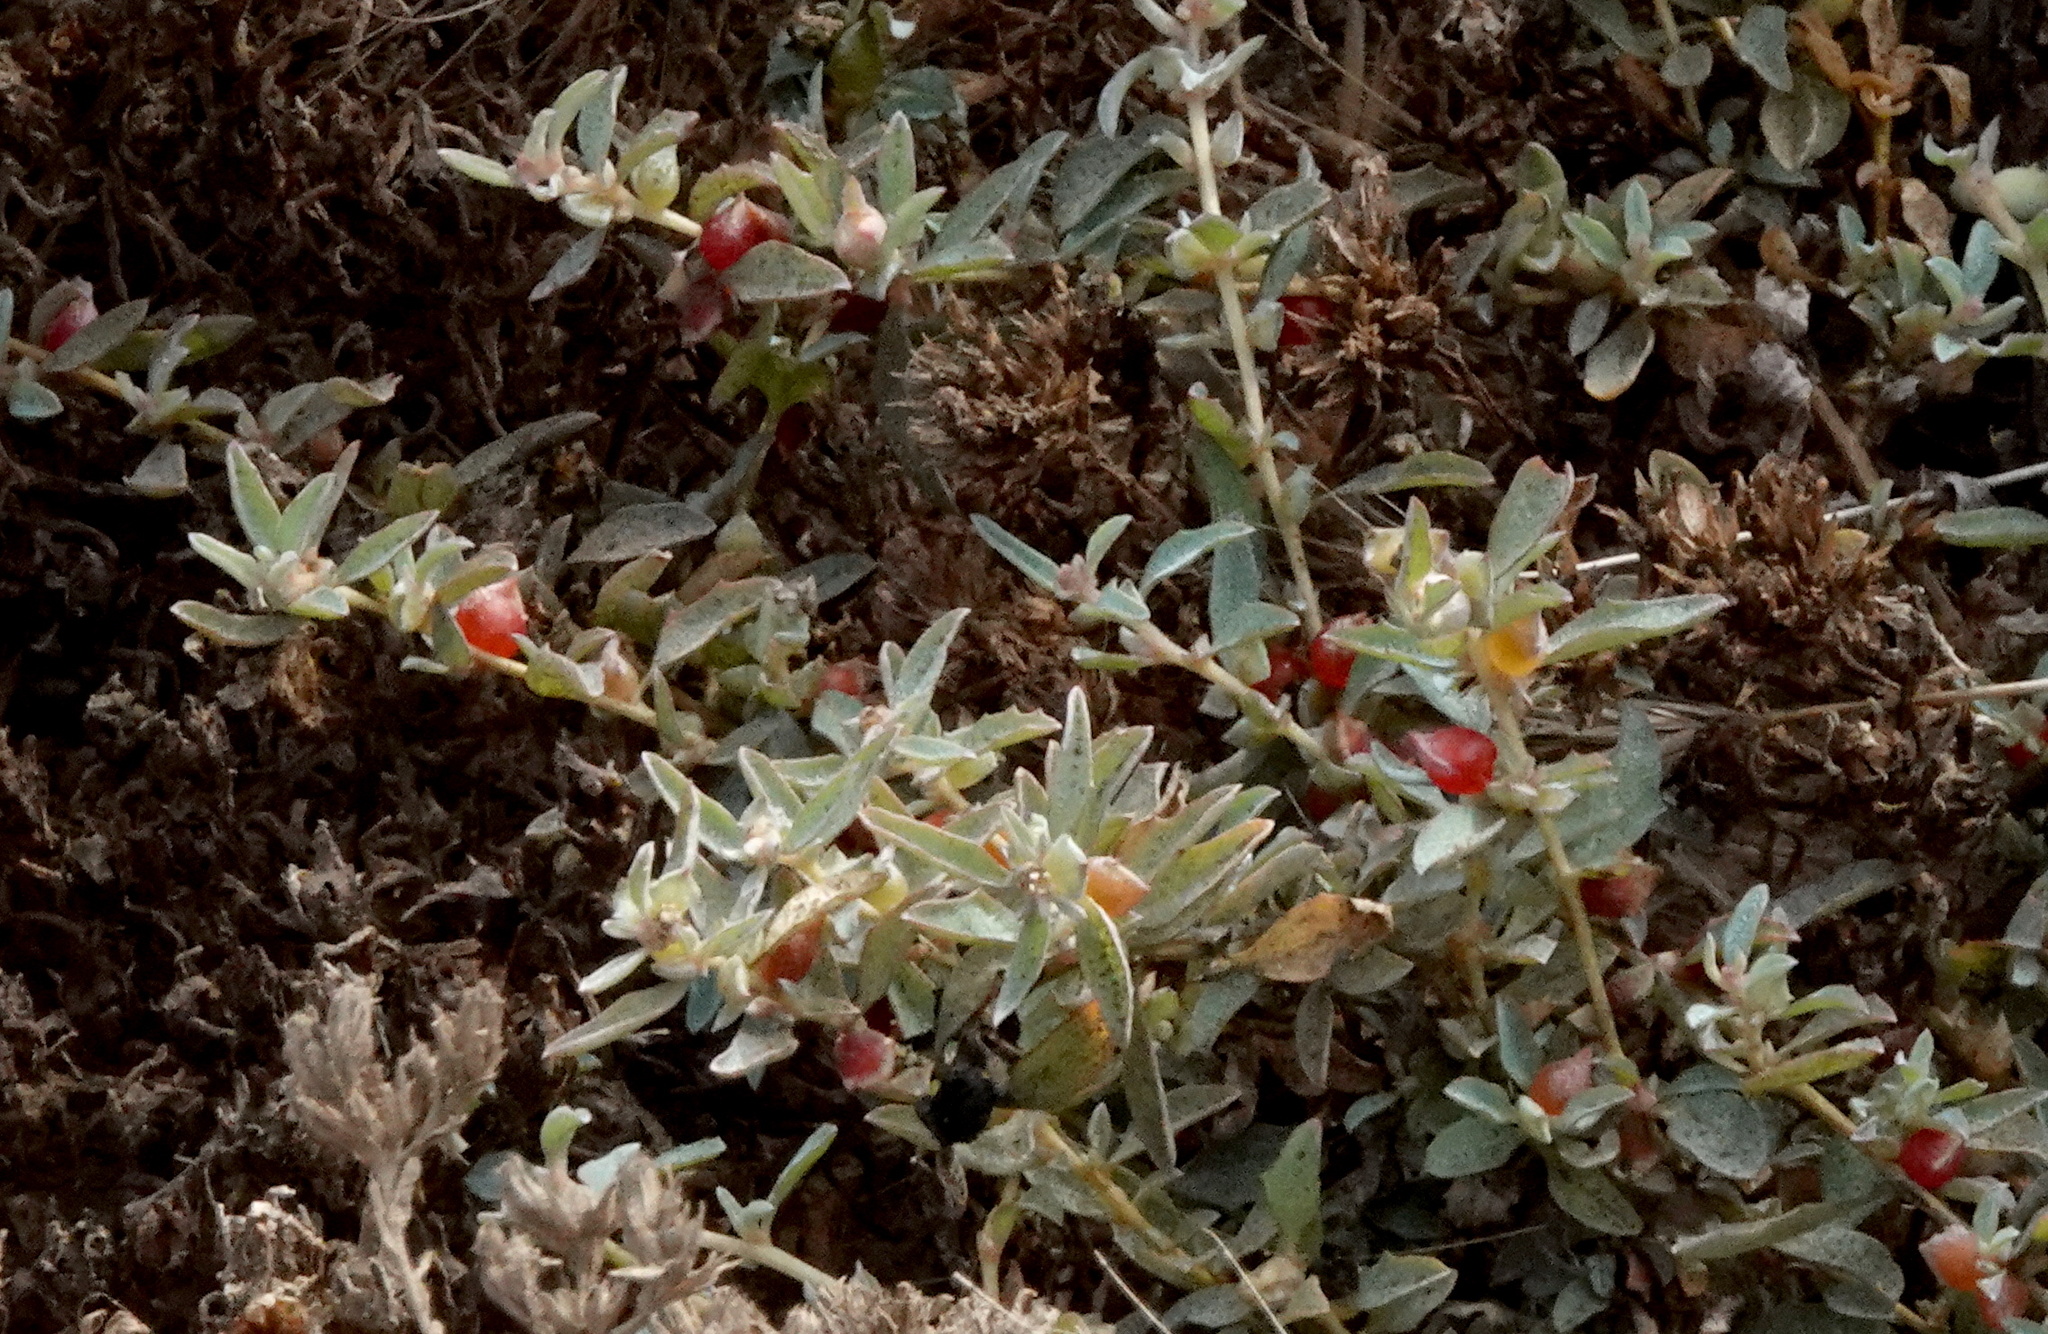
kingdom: Plantae
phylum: Tracheophyta
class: Magnoliopsida
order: Caryophyllales
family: Amaranthaceae
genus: Atriplex
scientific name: Atriplex semibaccata
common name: Australian saltbush
